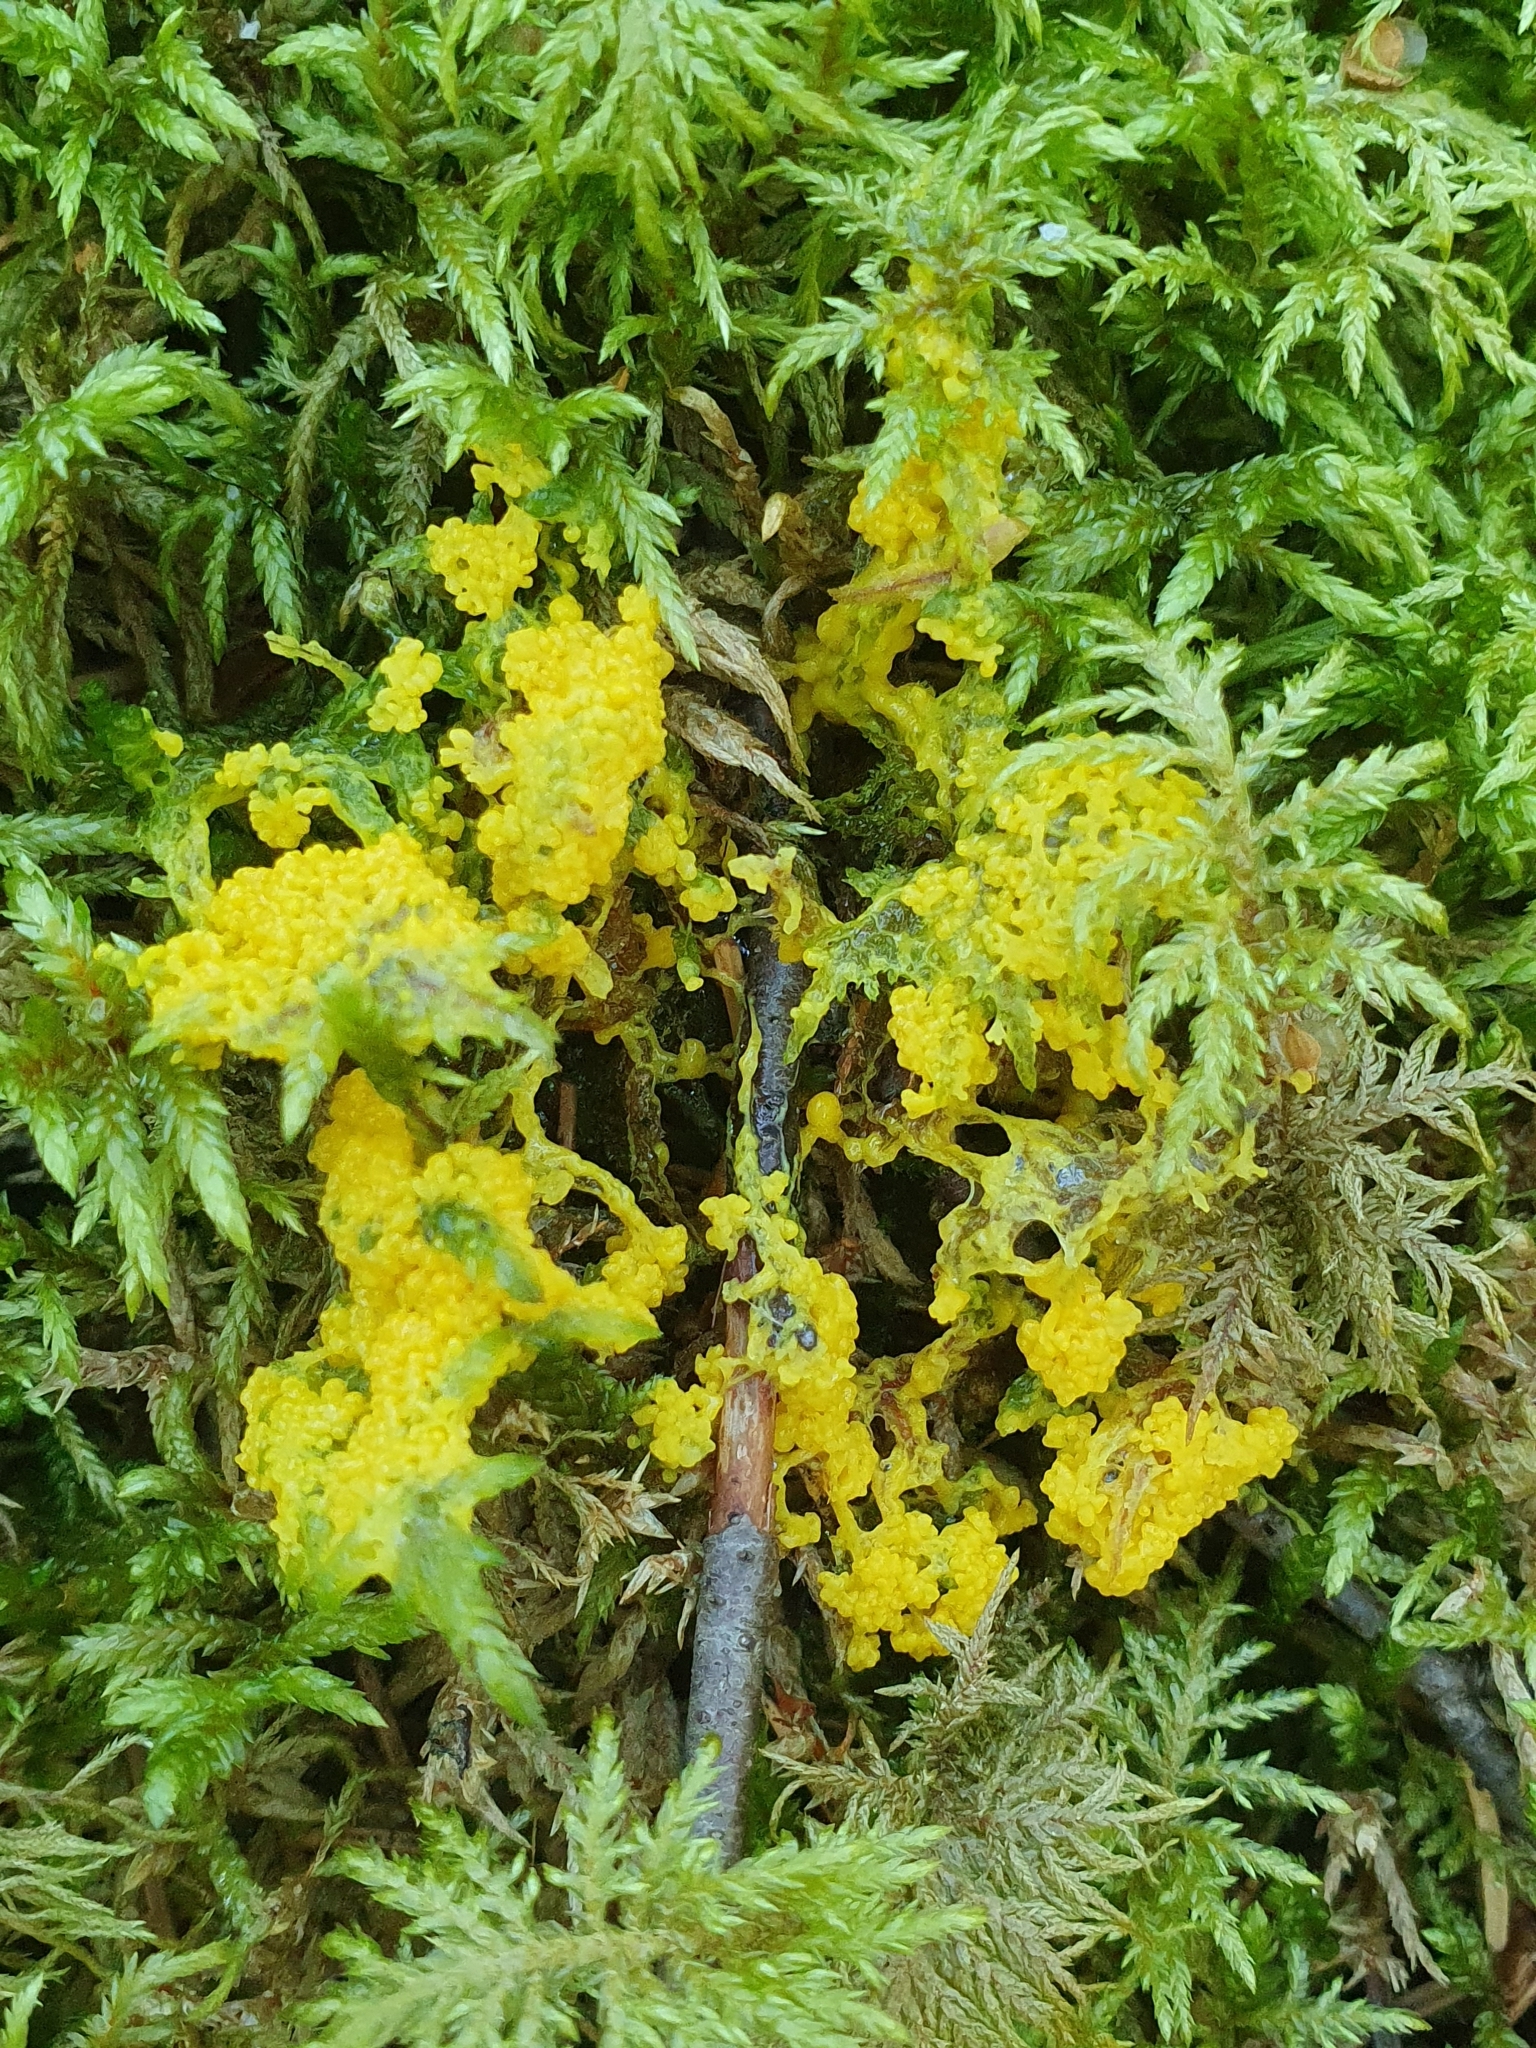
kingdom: Protozoa
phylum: Mycetozoa
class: Myxomycetes
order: Physarales
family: Physaraceae
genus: Fuligo
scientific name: Fuligo septica
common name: Dog vomit slime mold
